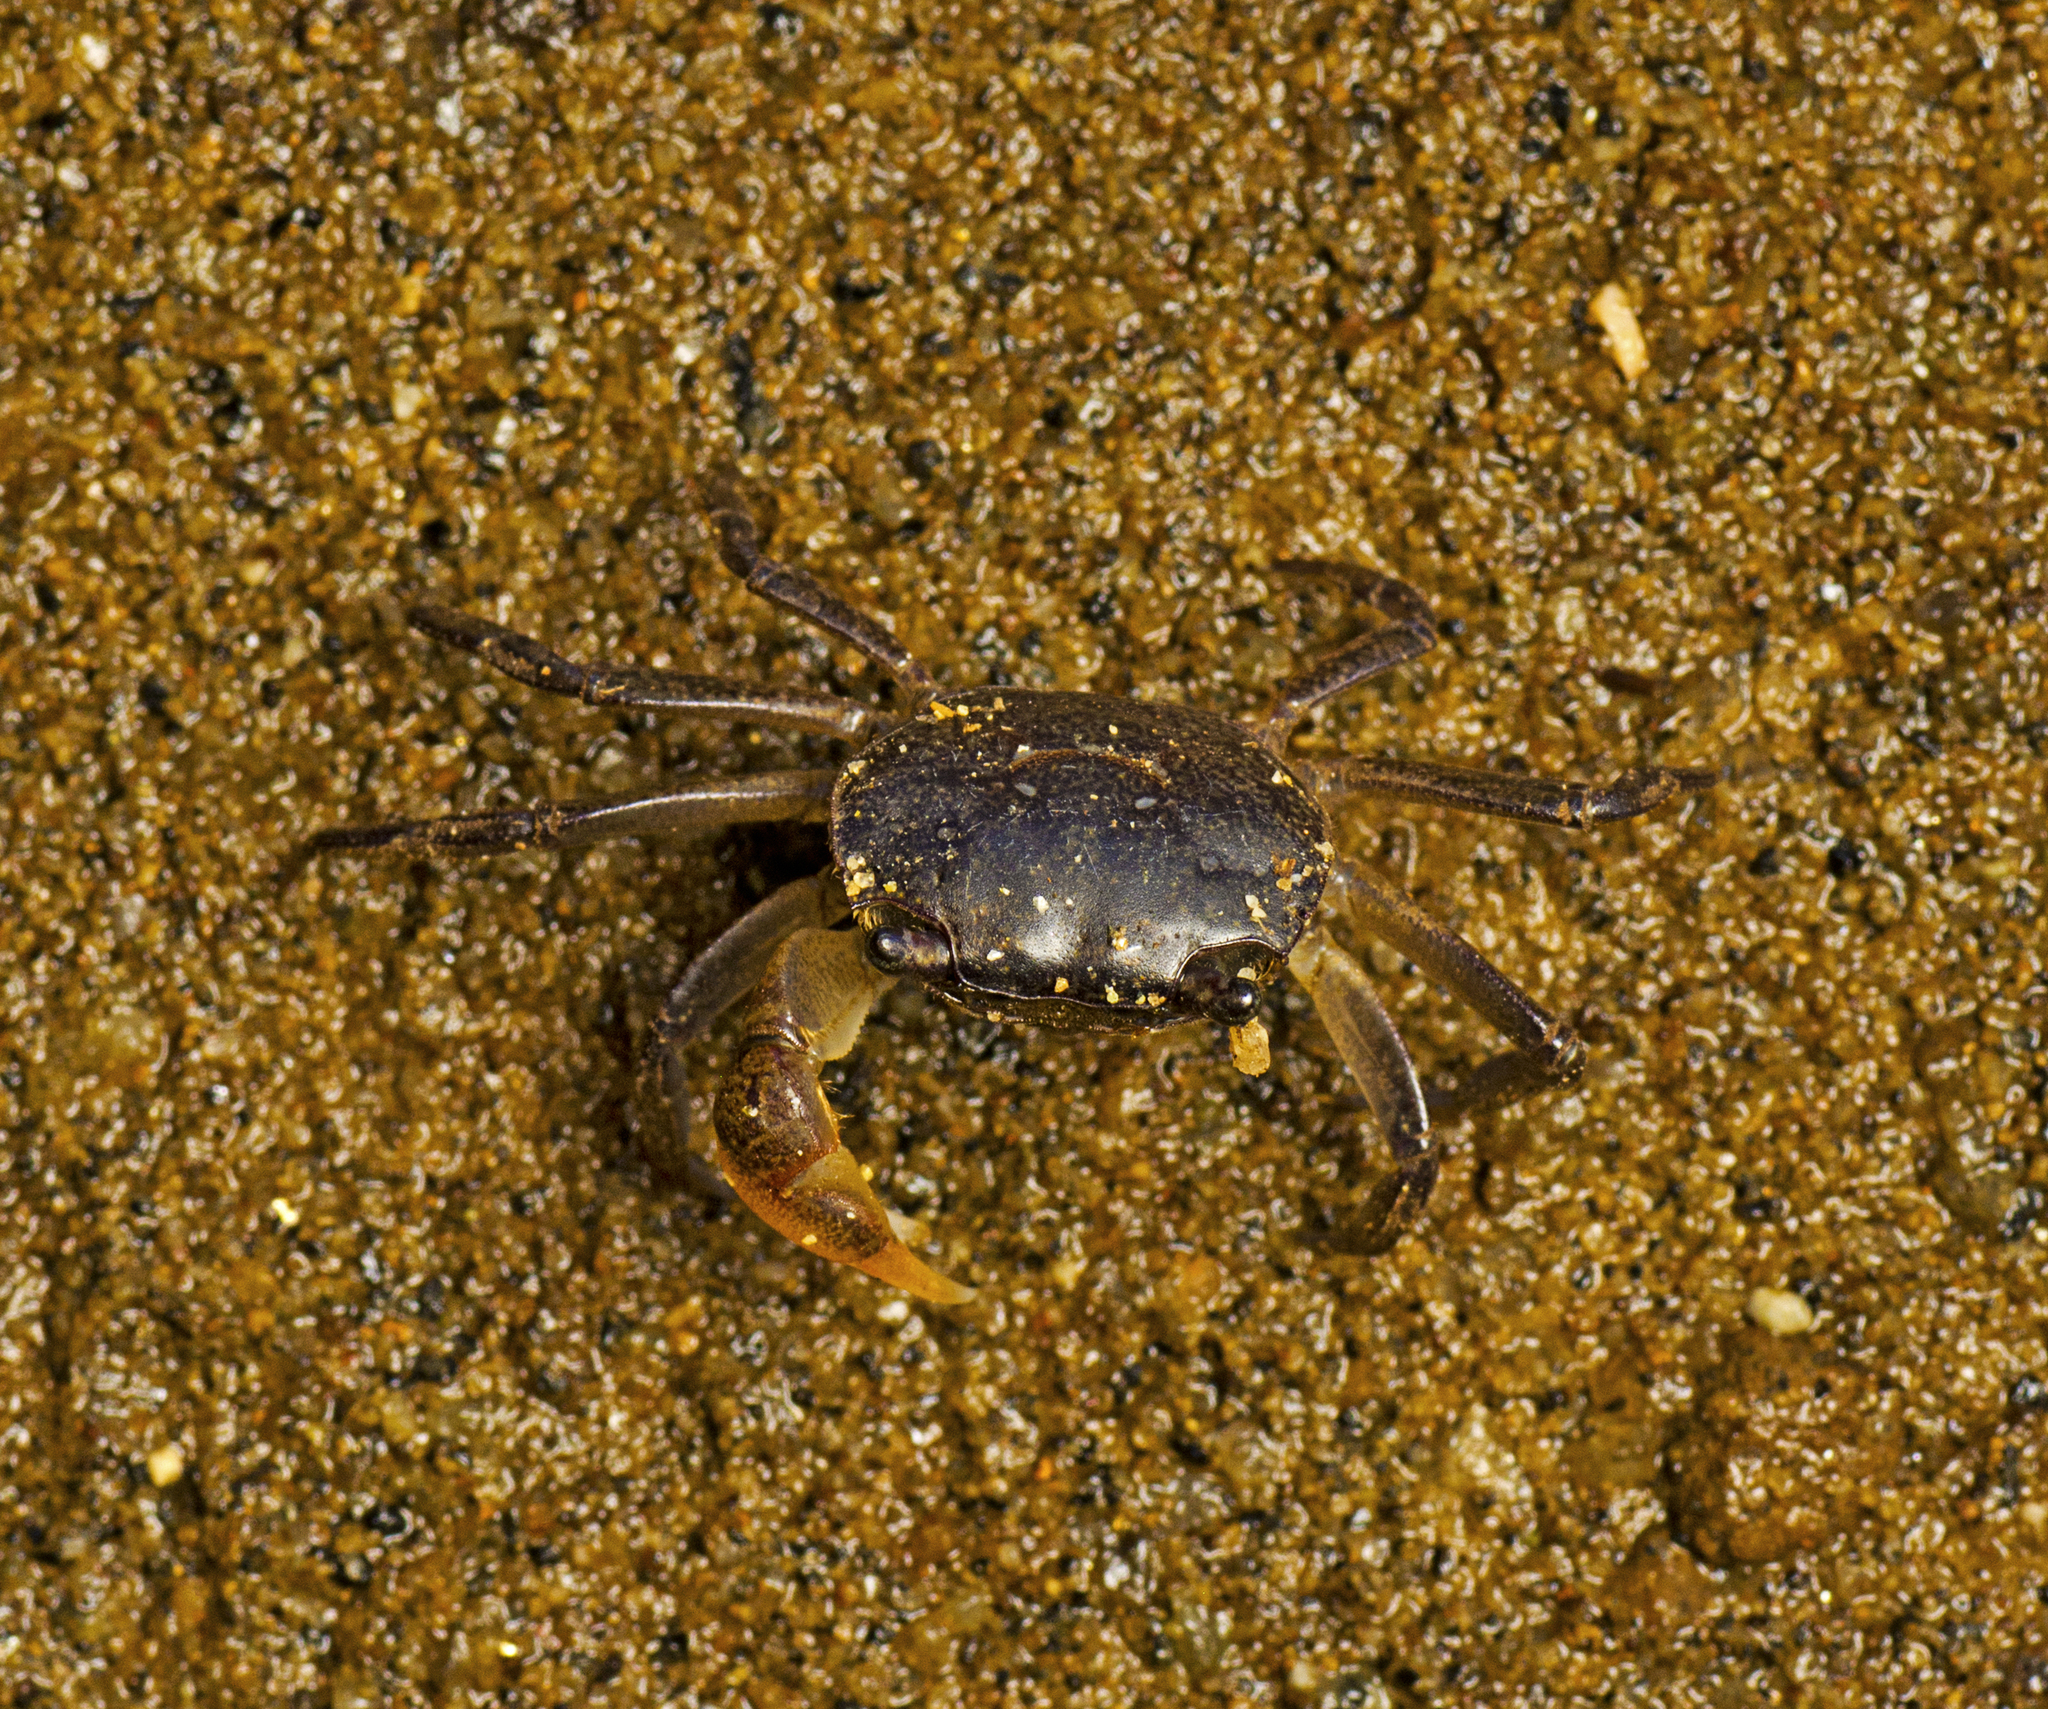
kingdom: Animalia
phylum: Arthropoda
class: Malacostraca
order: Decapoda
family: Varunidae
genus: Helograpsus
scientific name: Helograpsus haswellianus
